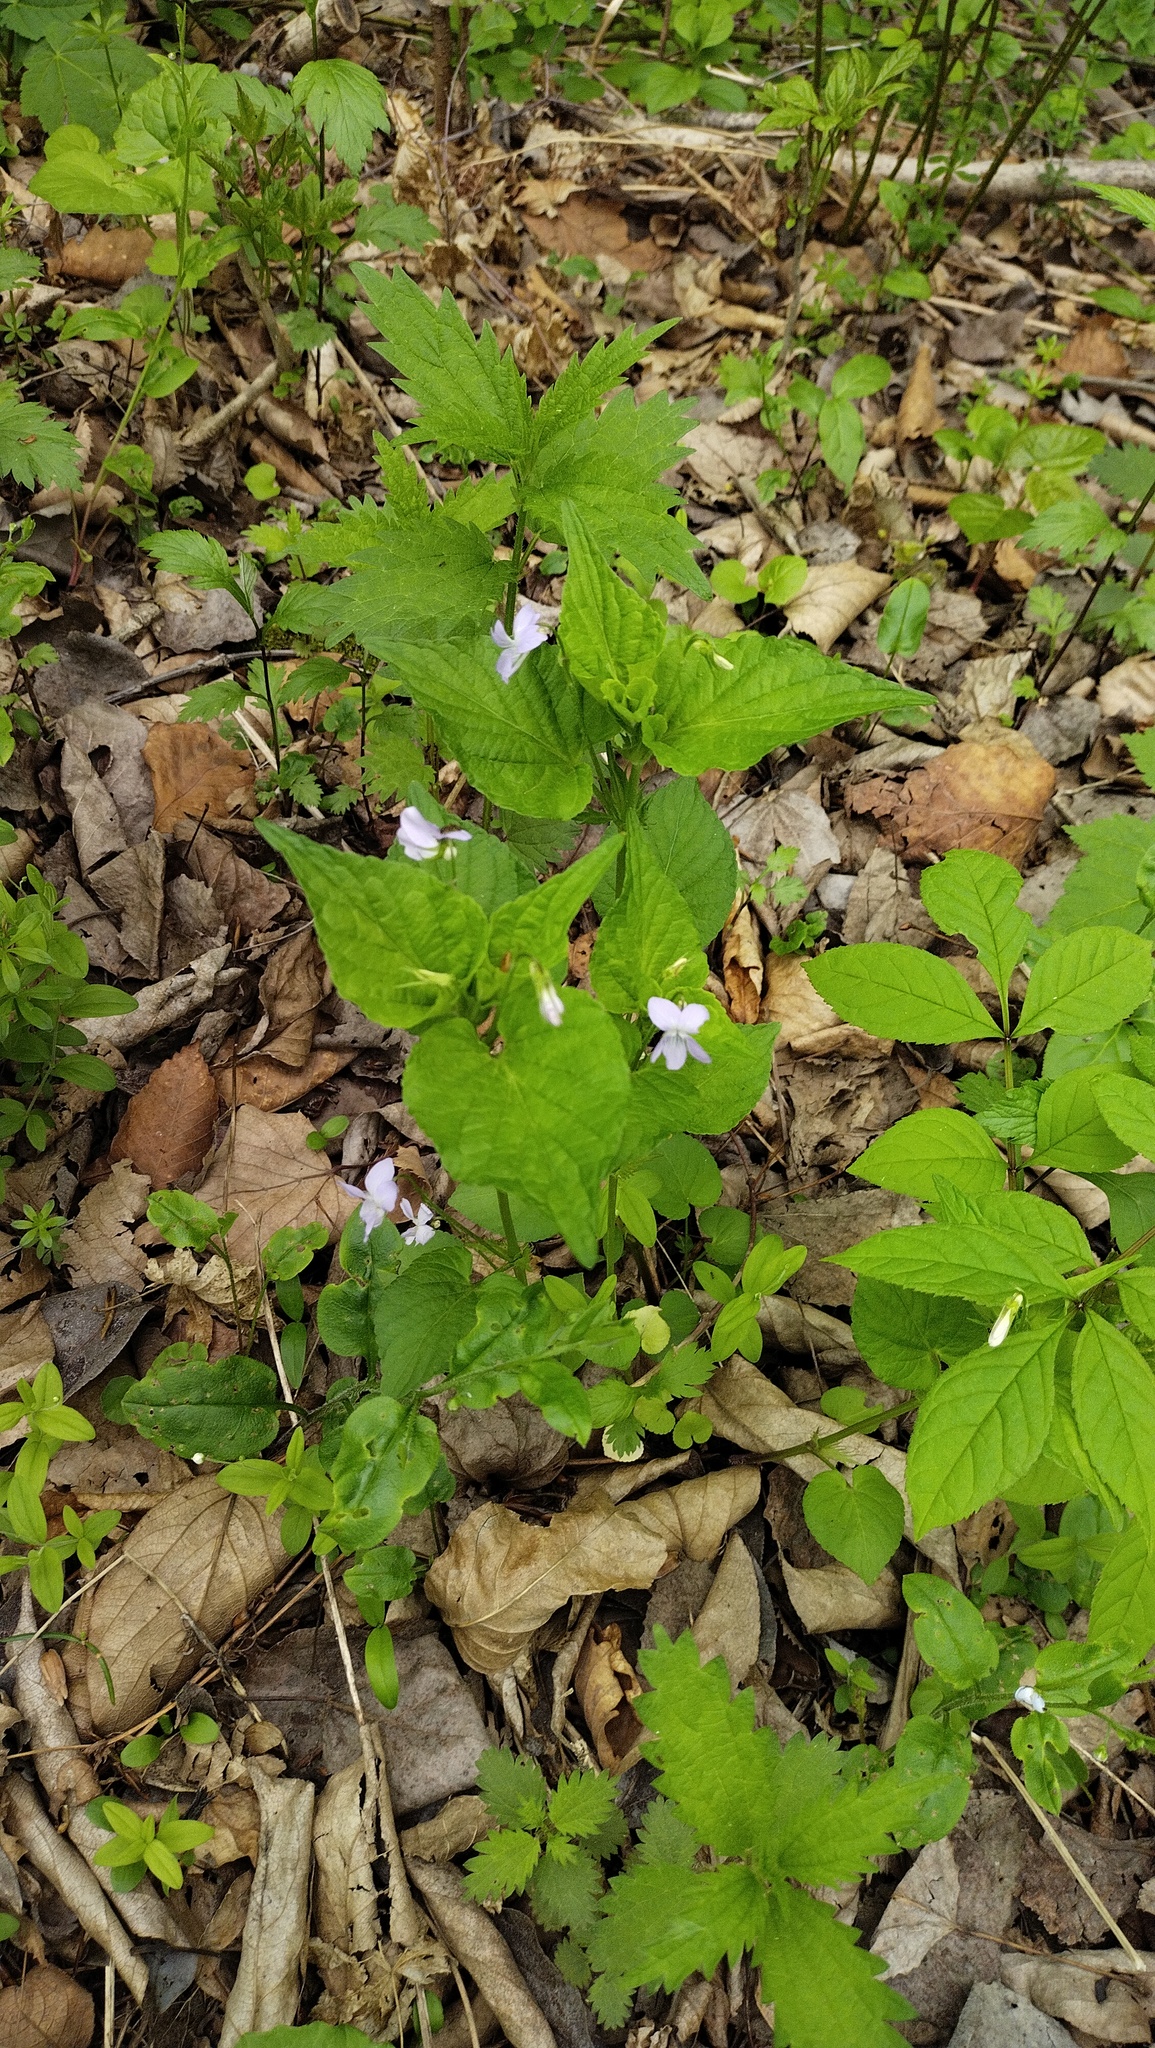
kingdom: Plantae
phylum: Tracheophyta
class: Magnoliopsida
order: Malpighiales
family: Violaceae
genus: Viola
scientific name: Viola acuminata
